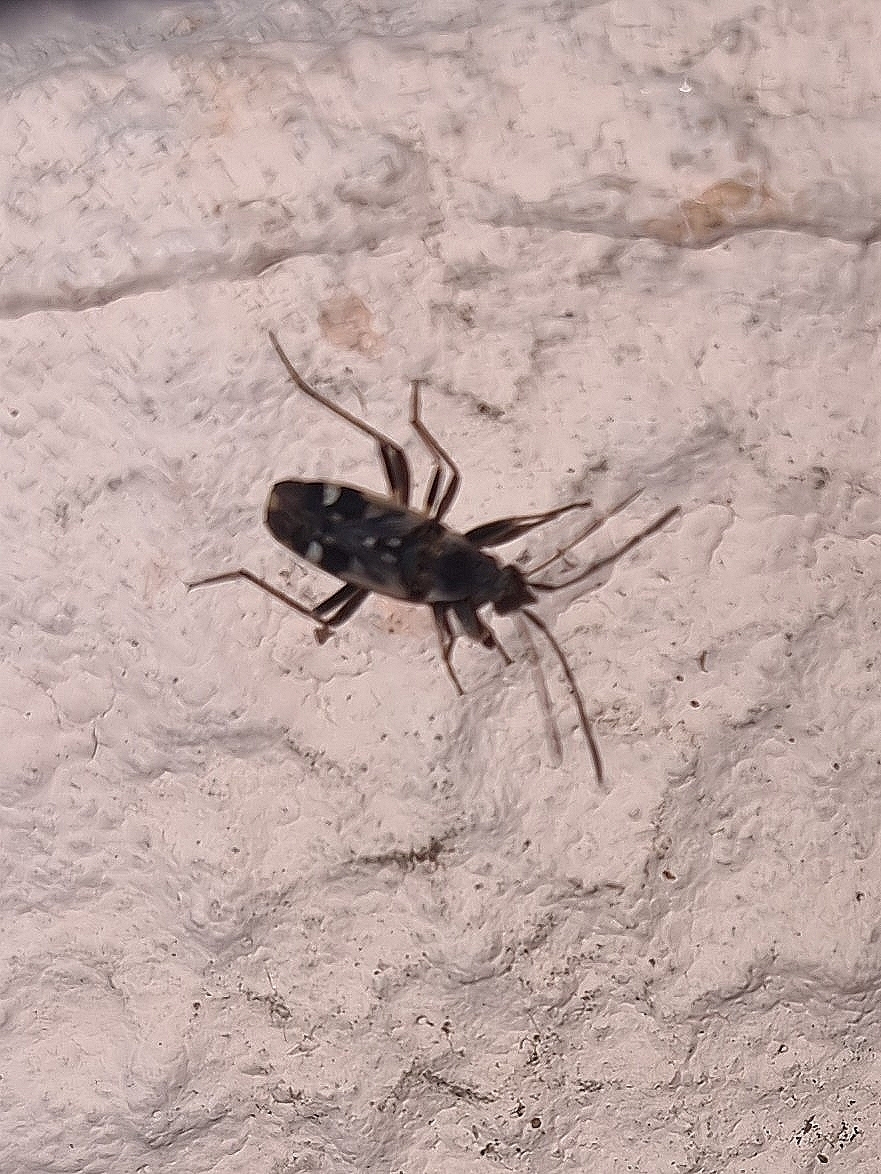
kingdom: Animalia
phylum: Arthropoda
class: Insecta
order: Hemiptera
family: Rhyparochromidae
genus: Beosus
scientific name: Beosus maritimus
